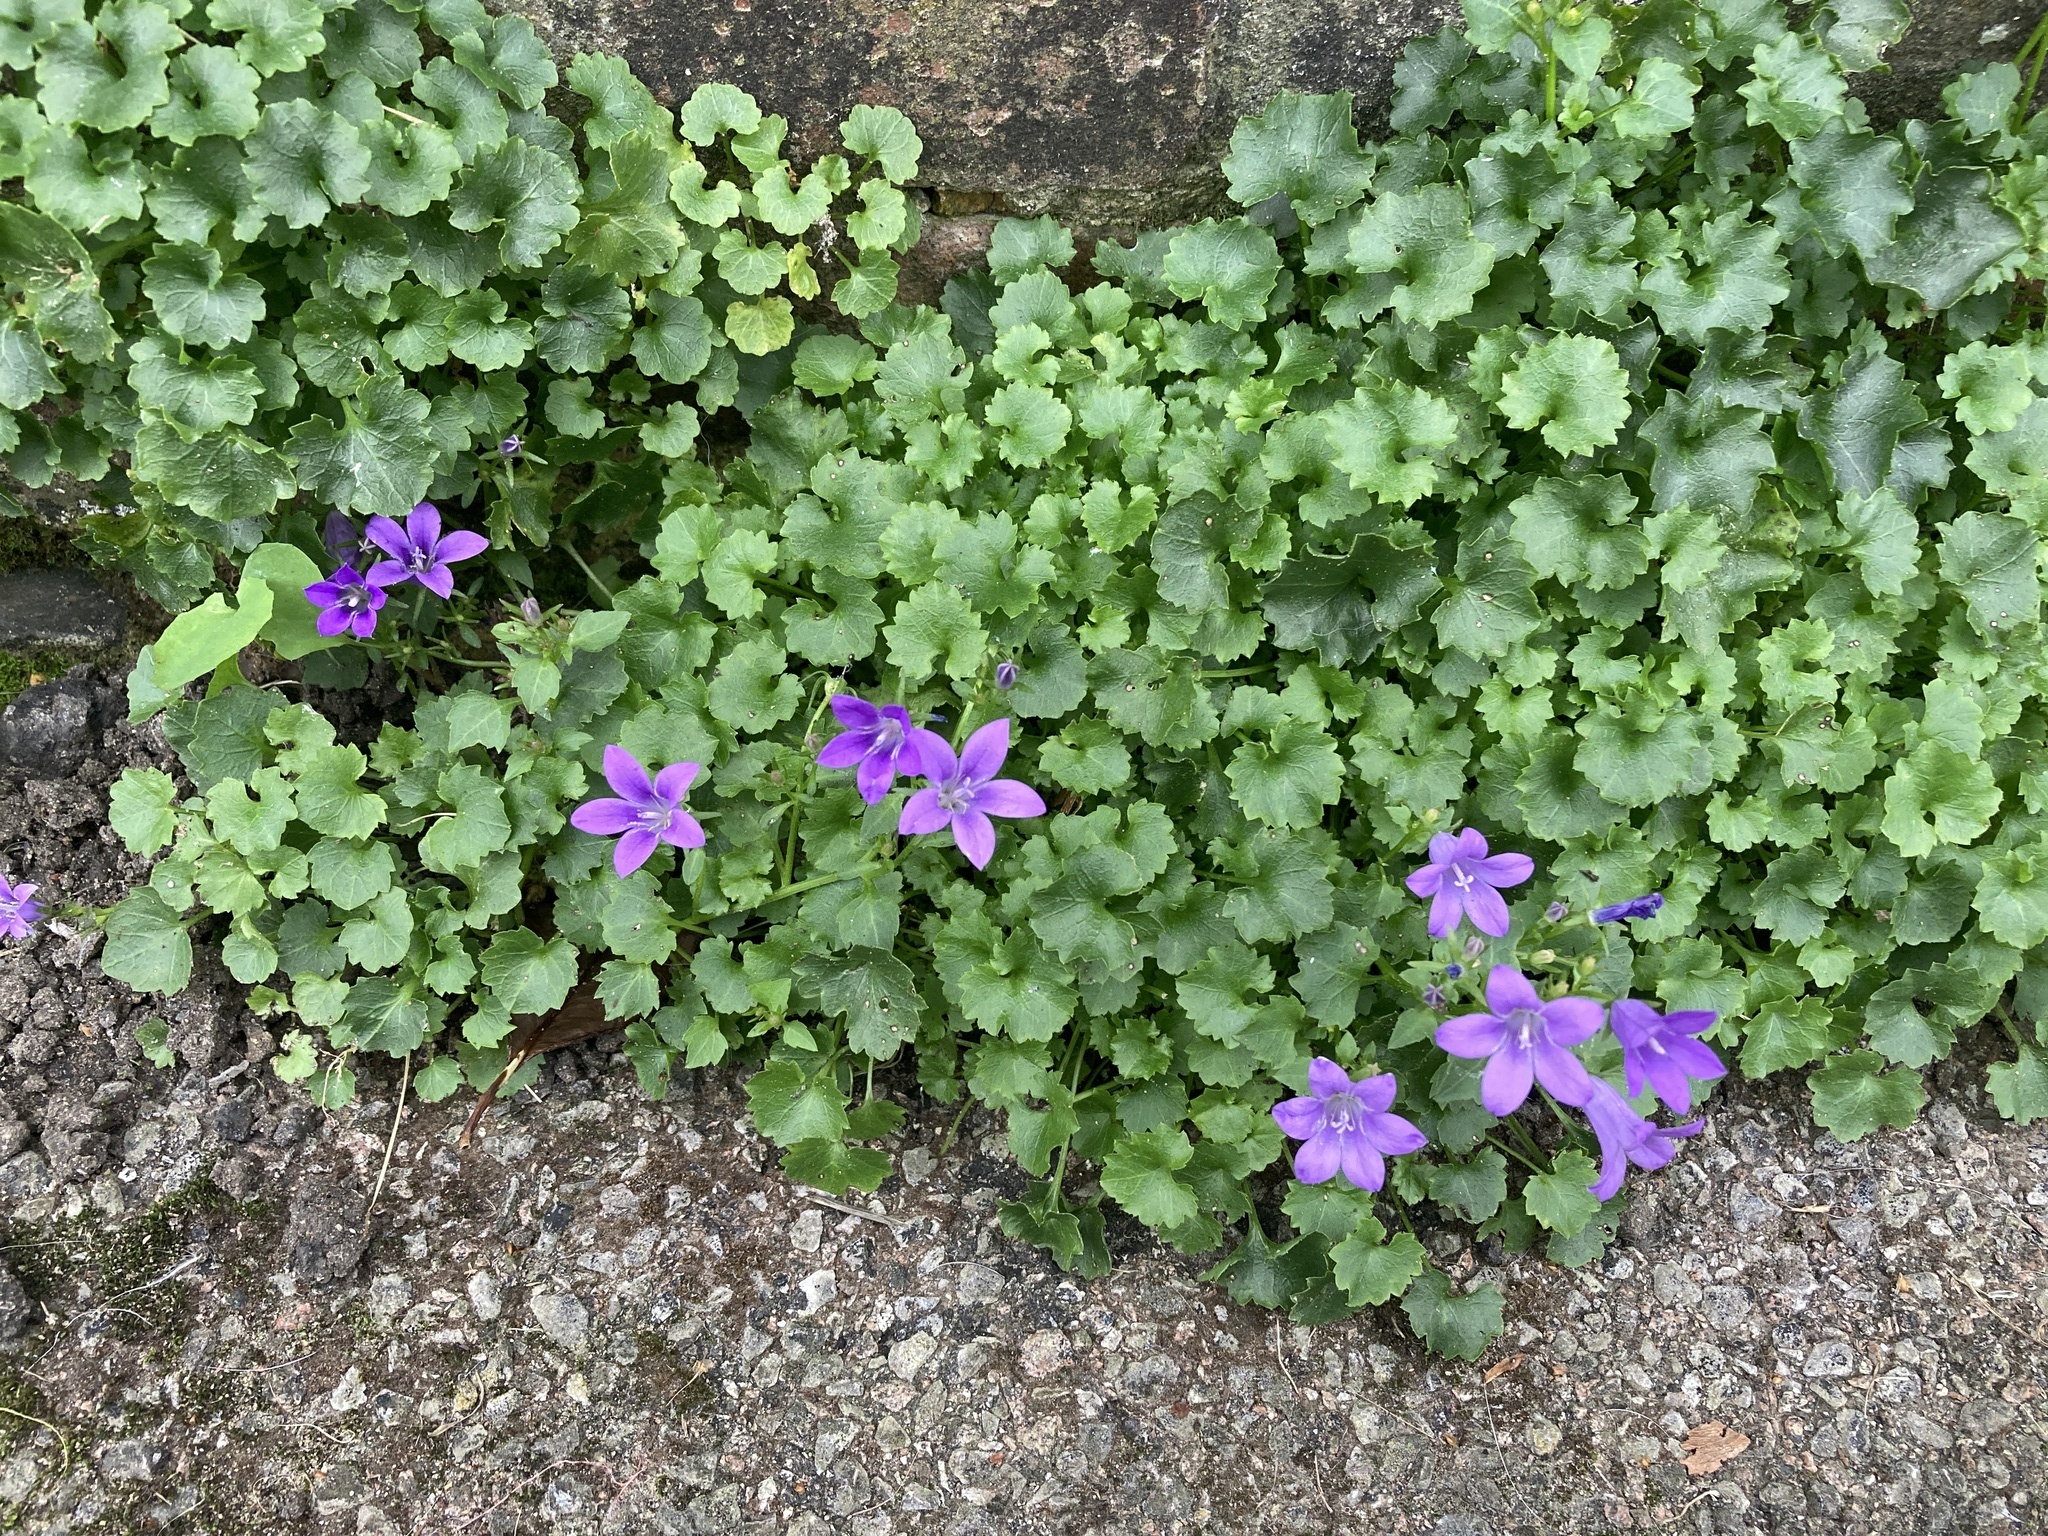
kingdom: Plantae
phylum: Tracheophyta
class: Magnoliopsida
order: Asterales
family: Campanulaceae
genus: Campanula
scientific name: Campanula portenschlagiana
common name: Adria bellflower
